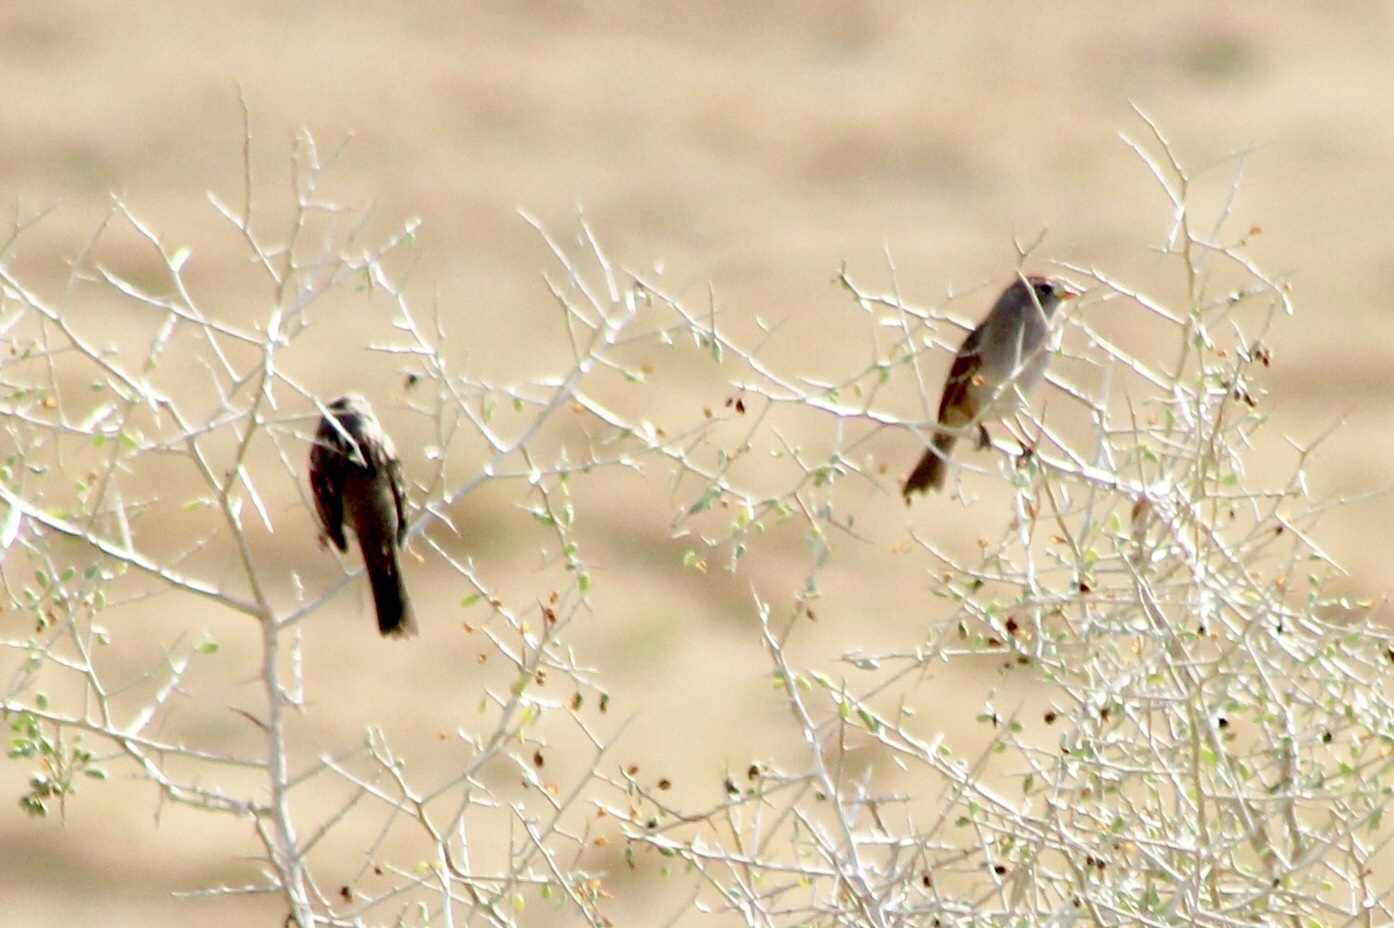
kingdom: Animalia
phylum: Chordata
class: Aves
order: Passeriformes
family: Passerellidae
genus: Zonotrichia
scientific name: Zonotrichia leucophrys
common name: White-crowned sparrow
